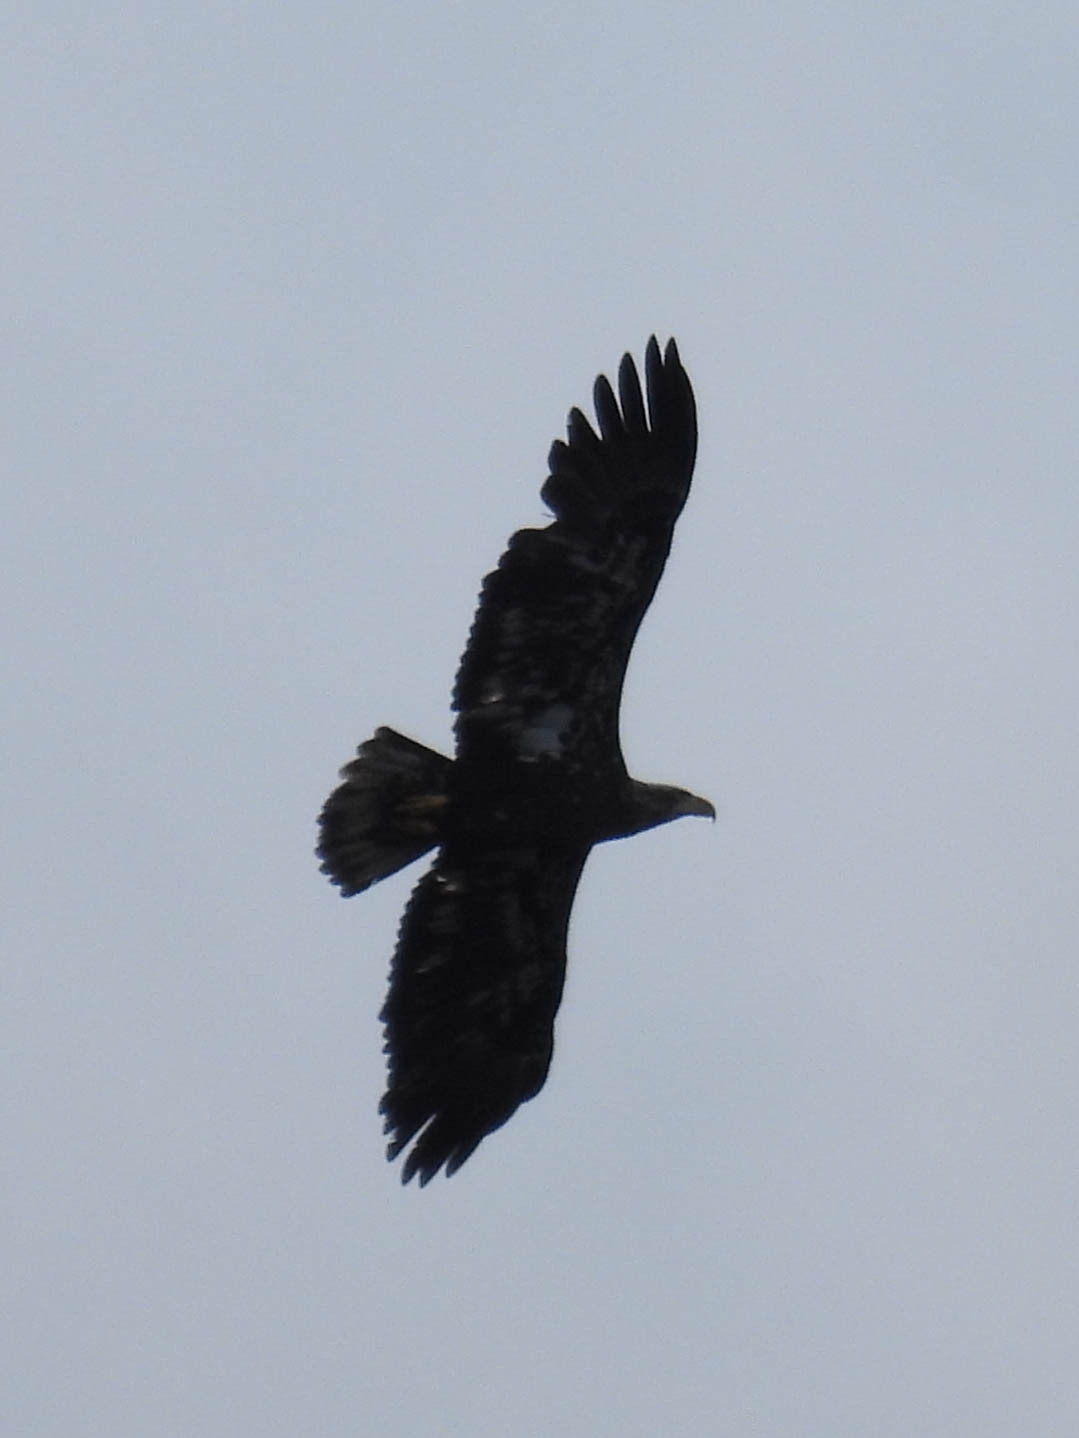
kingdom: Animalia
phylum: Chordata
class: Aves
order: Accipitriformes
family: Accipitridae
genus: Haliaeetus
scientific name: Haliaeetus leucocephalus
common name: Bald eagle
